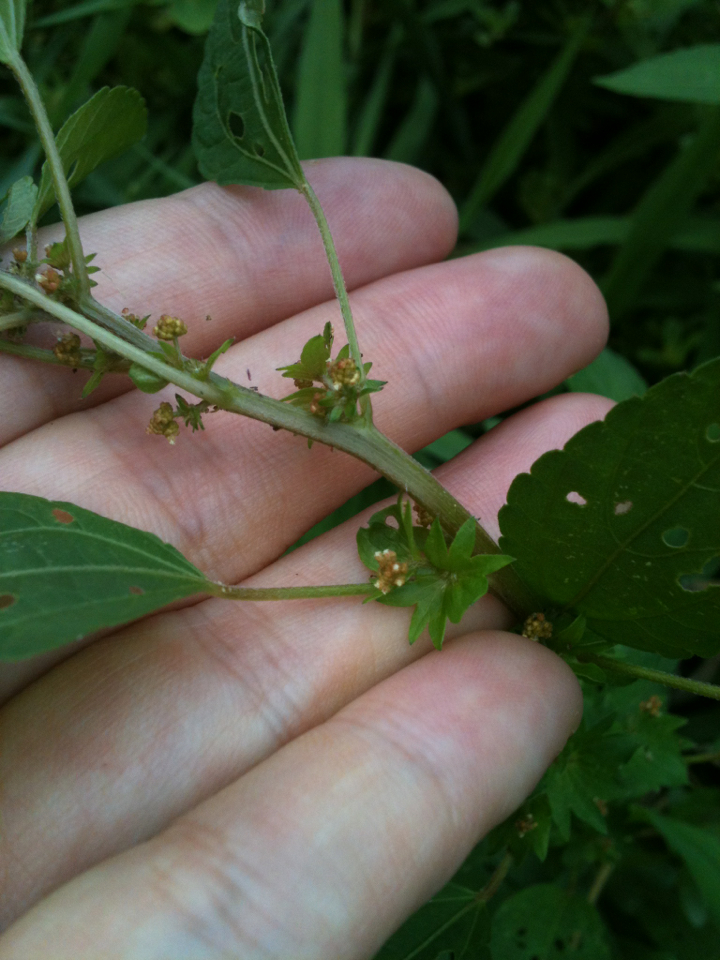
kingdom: Plantae
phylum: Tracheophyta
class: Magnoliopsida
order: Malpighiales
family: Euphorbiaceae
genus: Acalypha
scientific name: Acalypha rhomboidea
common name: Rhombic copperleaf
